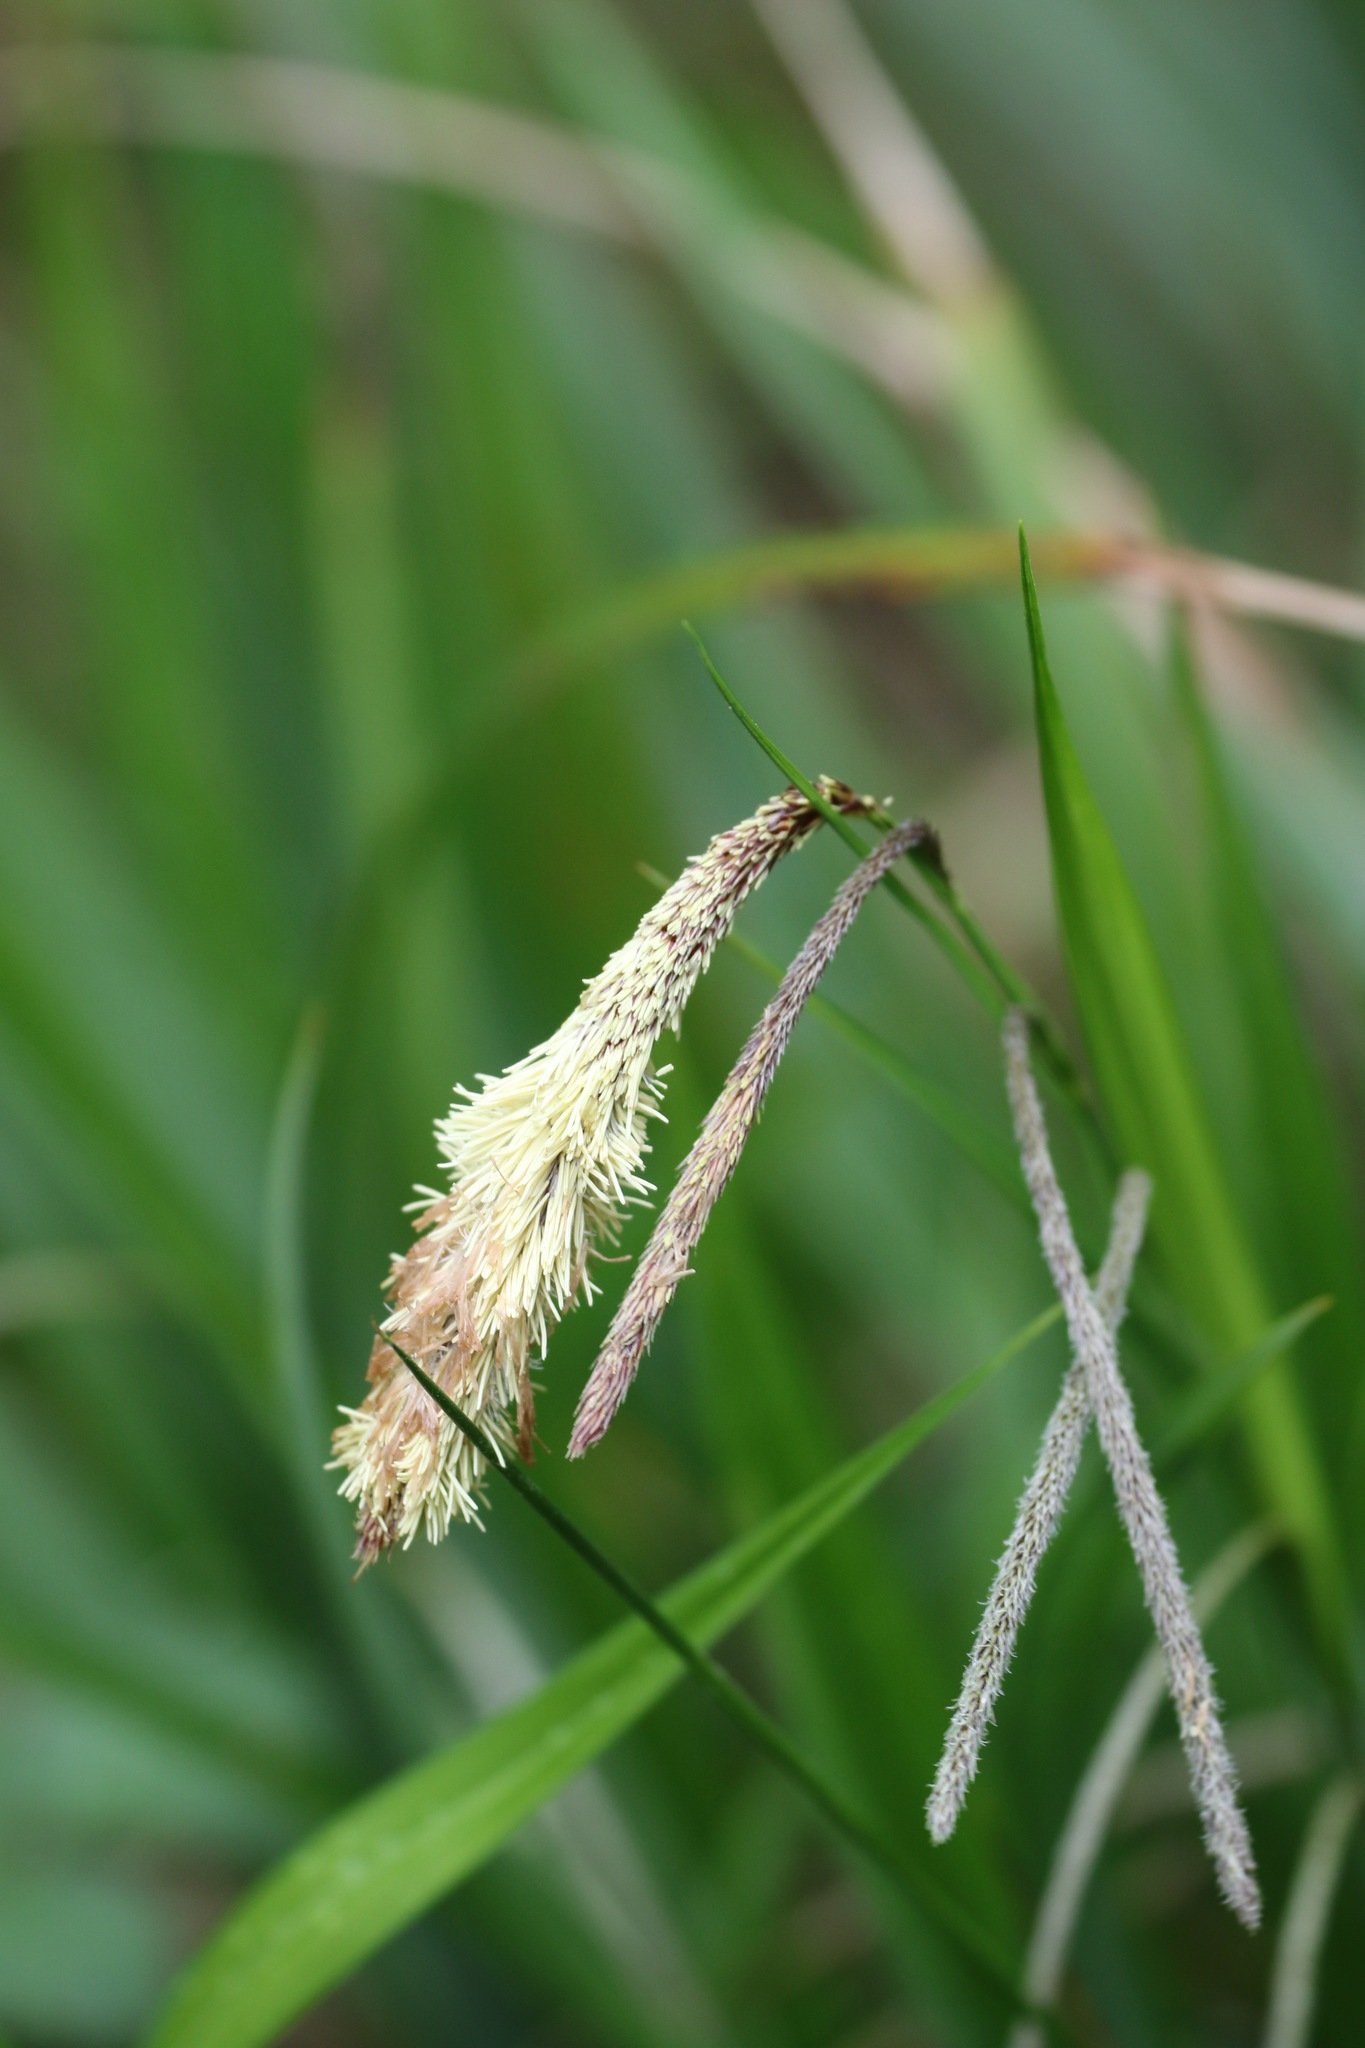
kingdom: Plantae
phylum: Tracheophyta
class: Liliopsida
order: Poales
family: Cyperaceae
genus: Carex
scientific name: Carex pendula
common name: Pendulous sedge
